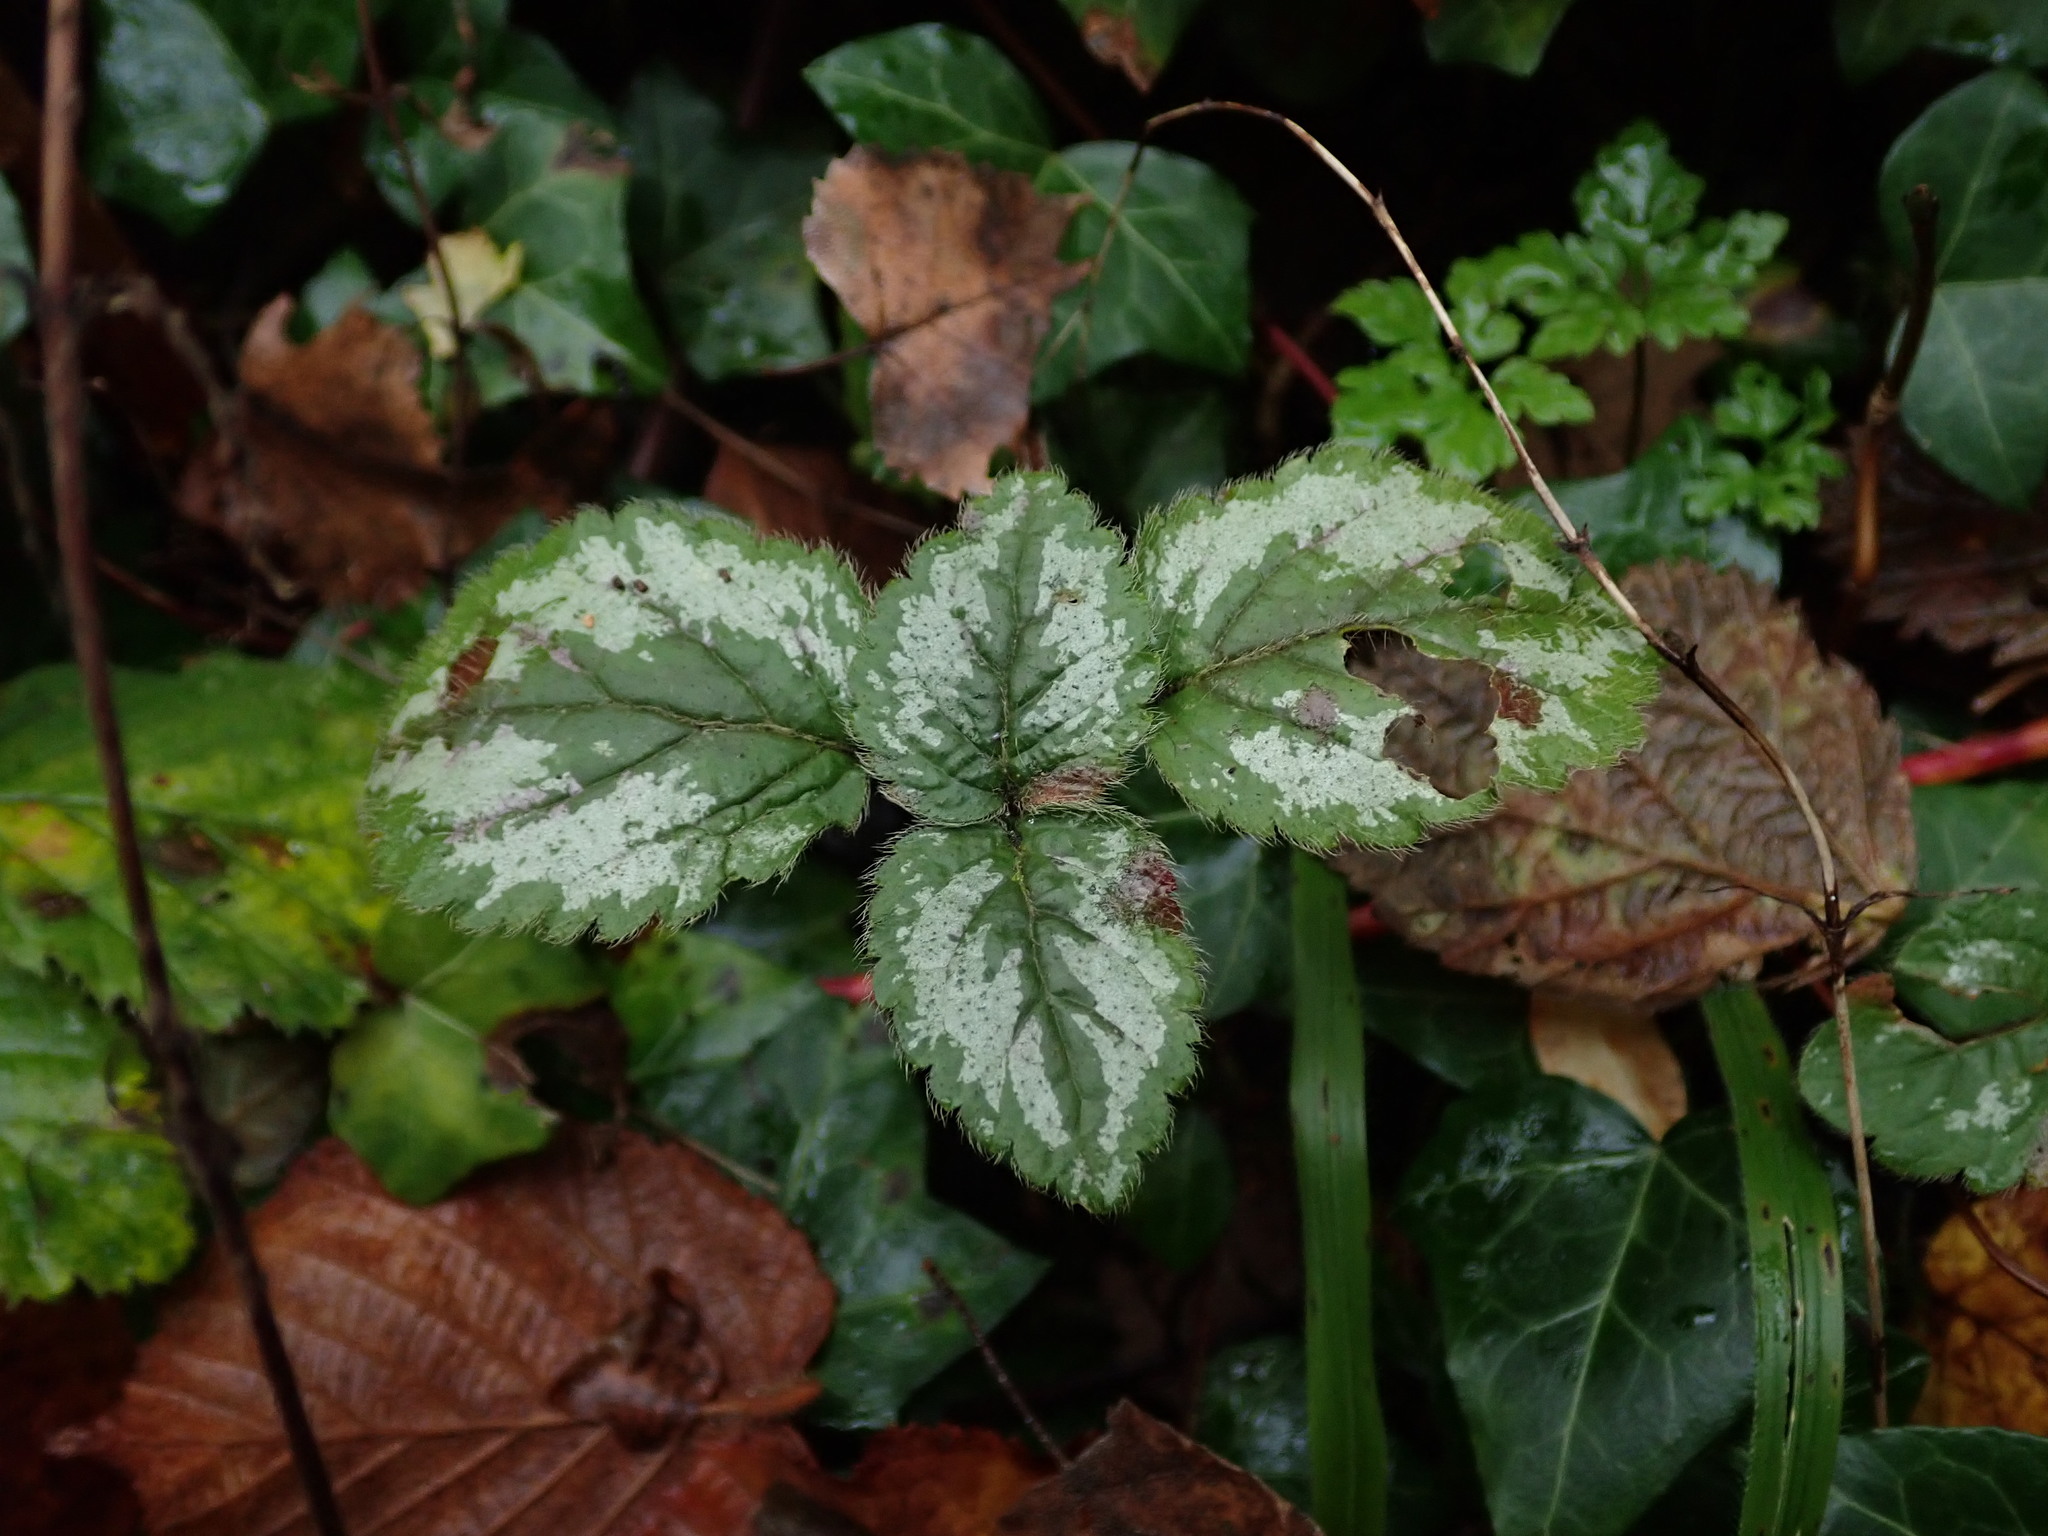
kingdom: Plantae
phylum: Tracheophyta
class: Magnoliopsida
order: Lamiales
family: Lamiaceae
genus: Lamium
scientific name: Lamium galeobdolon
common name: Yellow archangel
